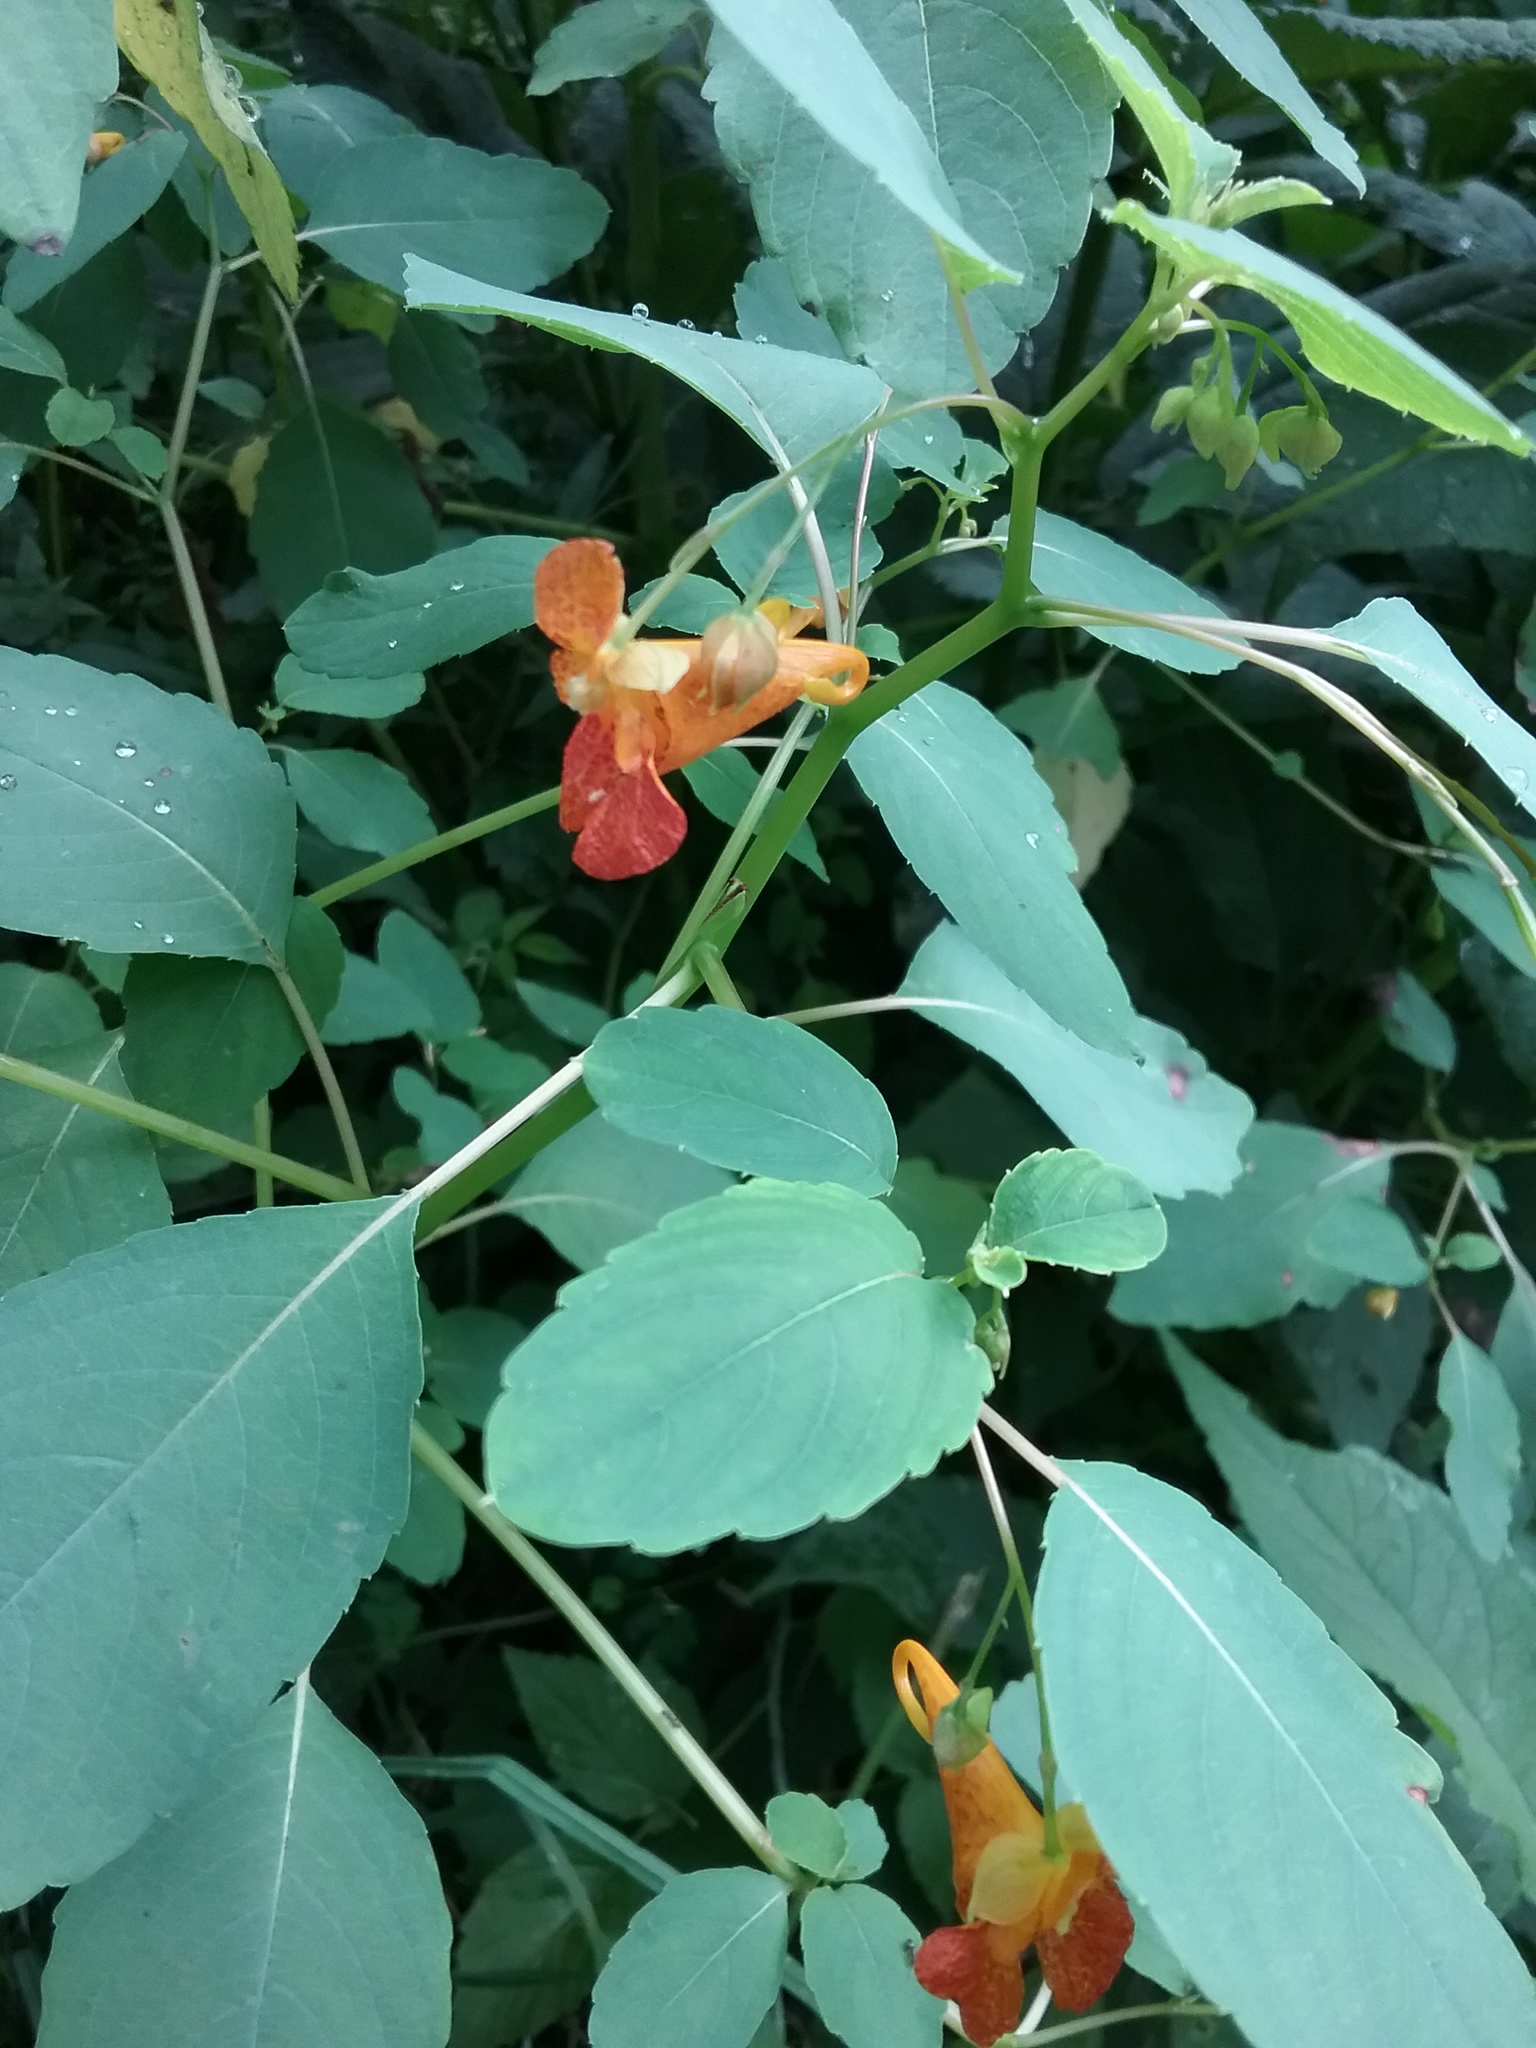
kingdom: Plantae
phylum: Tracheophyta
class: Magnoliopsida
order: Ericales
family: Balsaminaceae
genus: Impatiens
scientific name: Impatiens capensis
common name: Orange balsam
